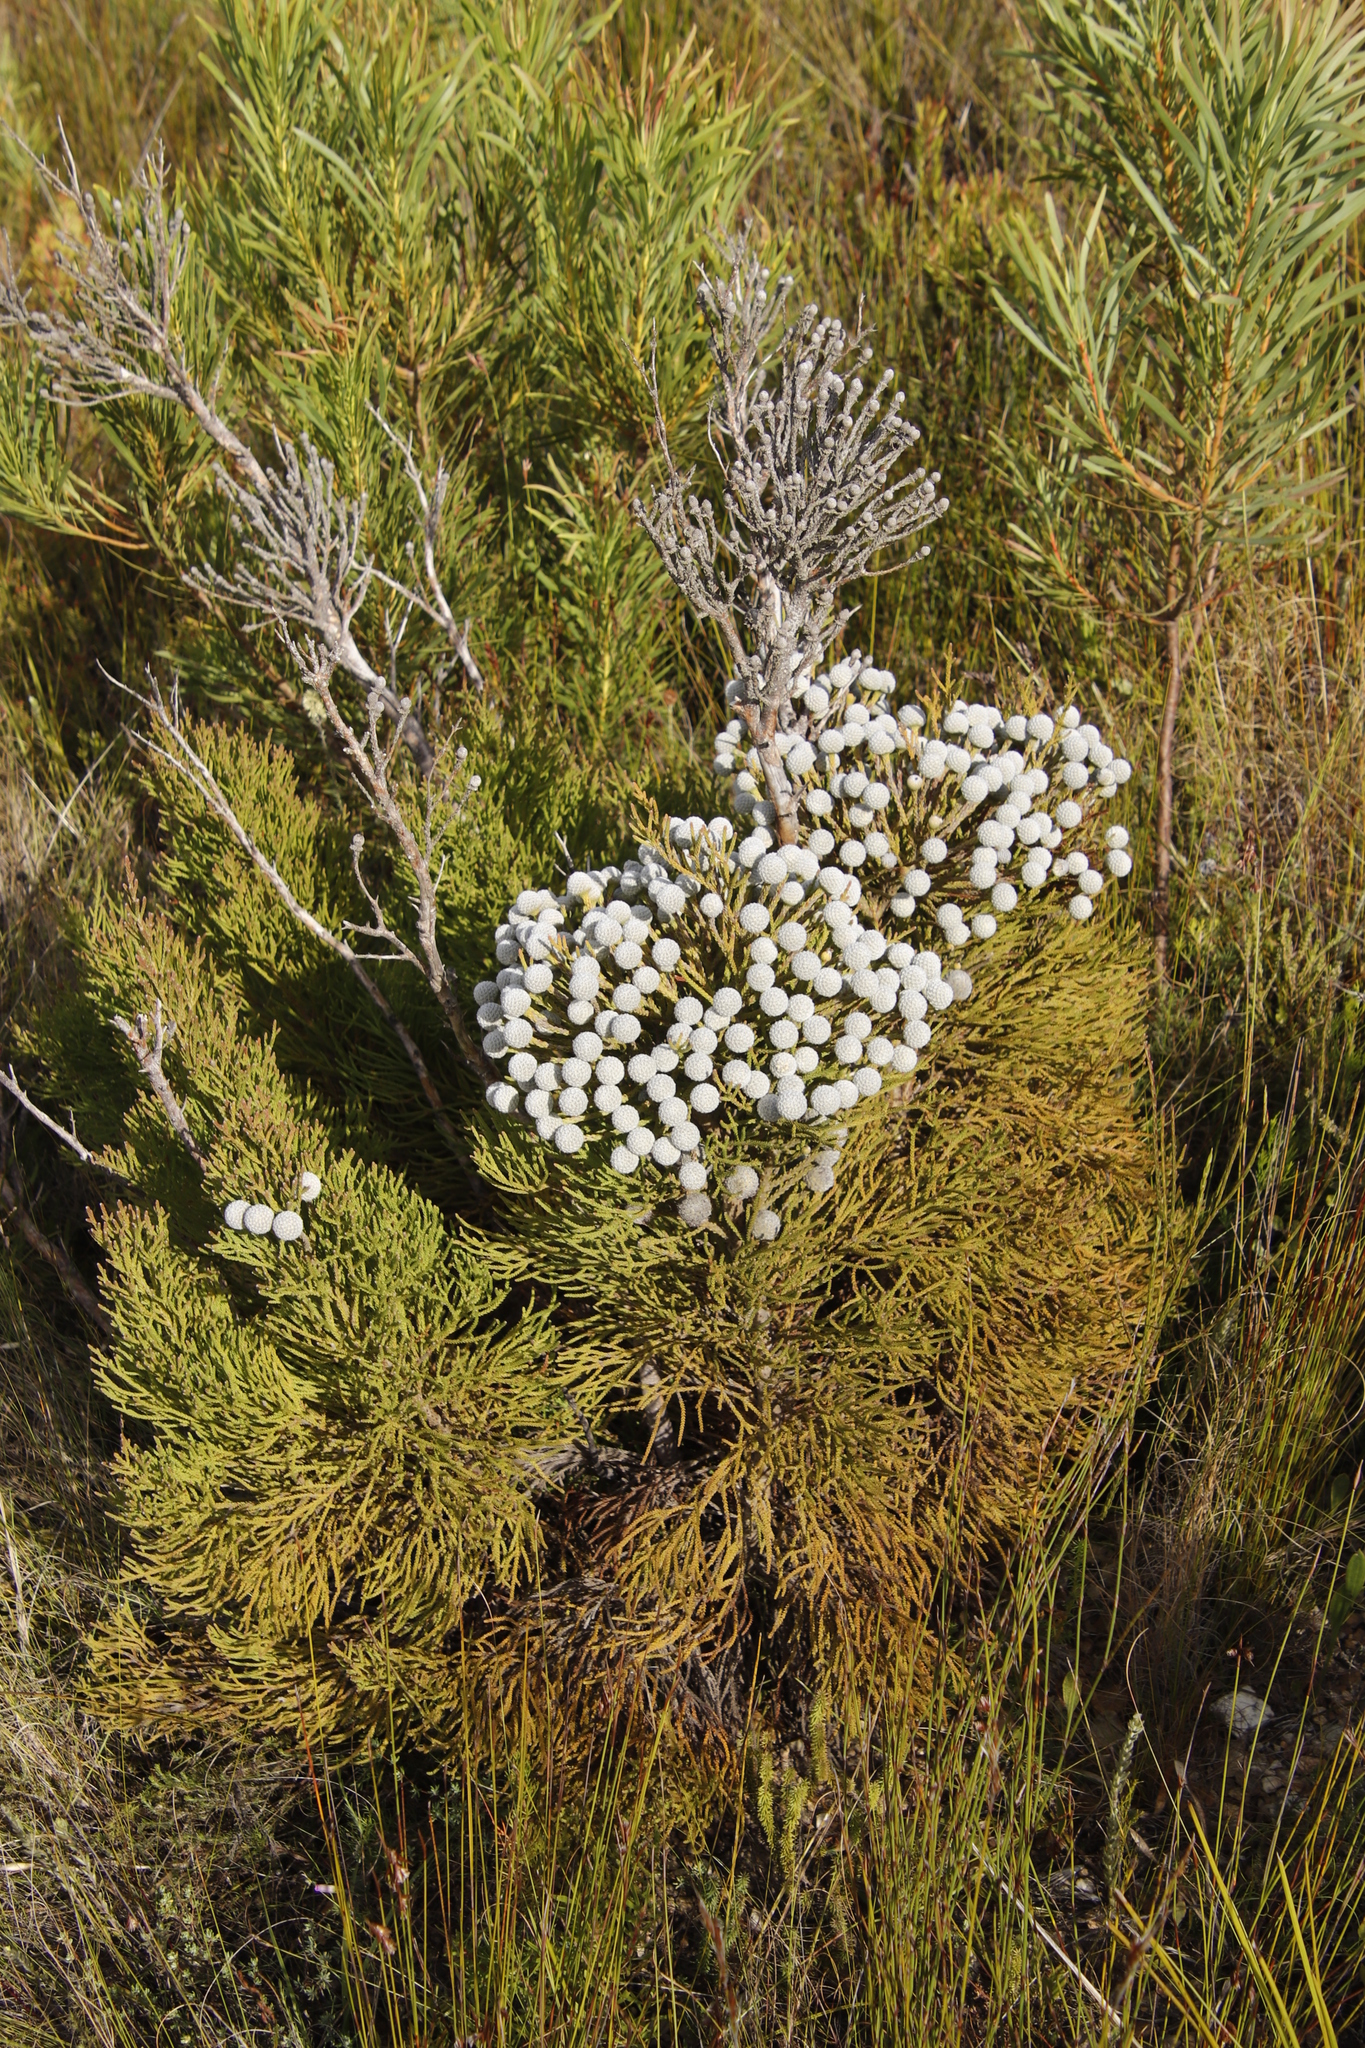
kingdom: Plantae
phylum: Tracheophyta
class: Magnoliopsida
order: Bruniales
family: Bruniaceae
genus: Brunia
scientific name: Brunia noduliflora
